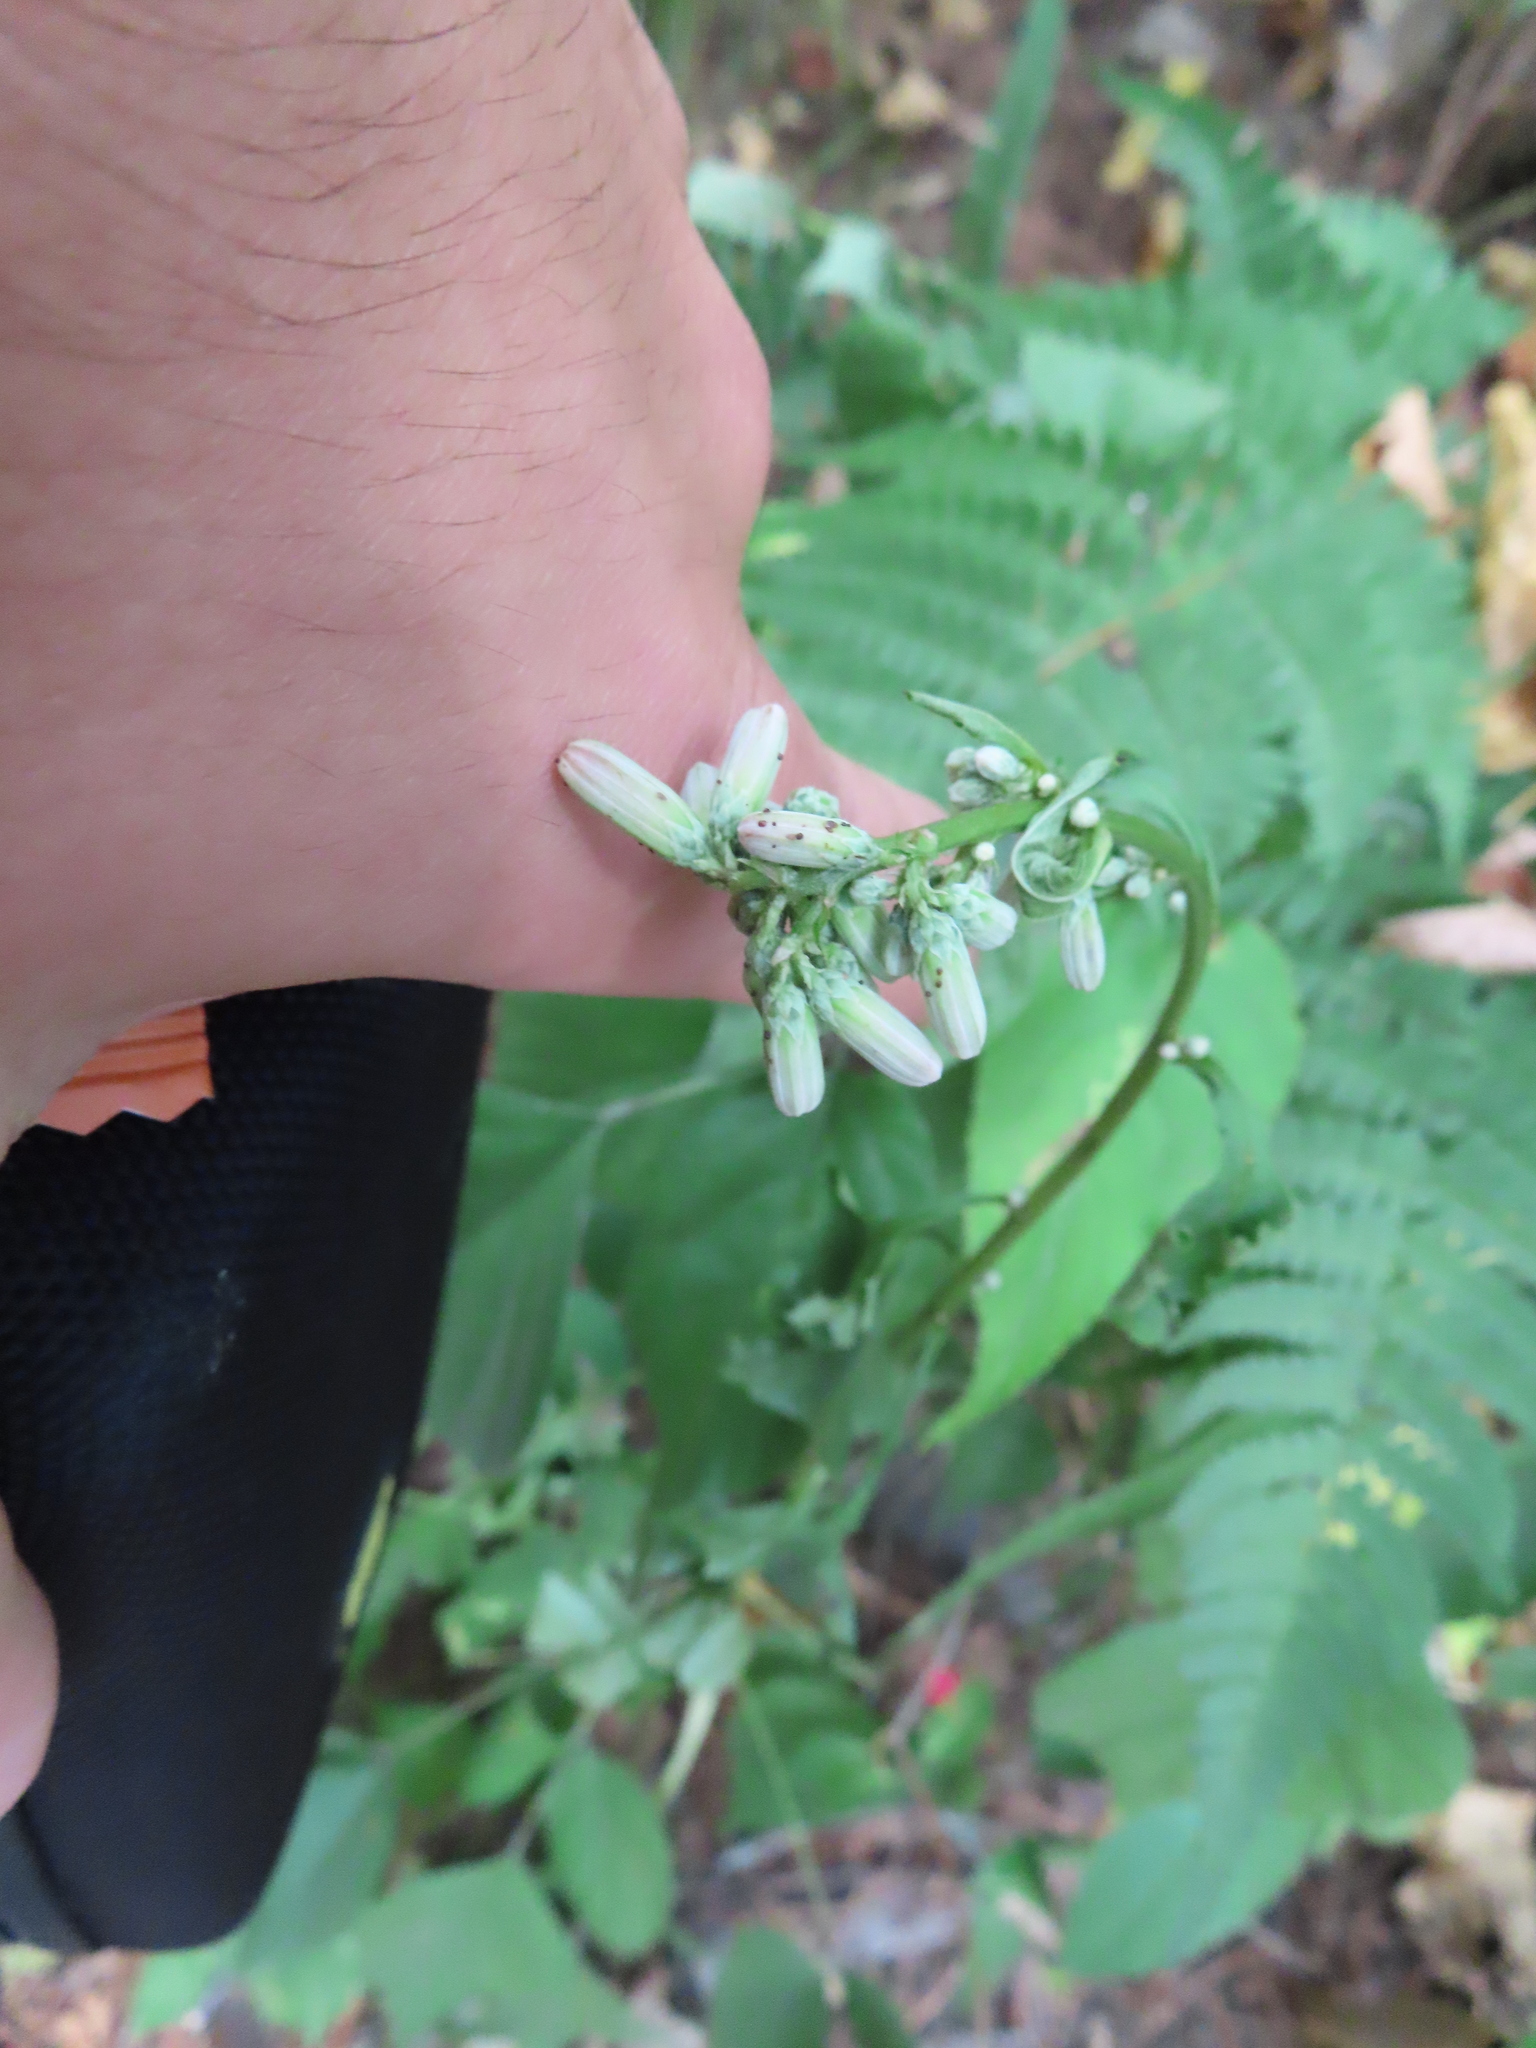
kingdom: Plantae
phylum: Tracheophyta
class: Magnoliopsida
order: Asterales
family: Asteraceae
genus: Nabalus
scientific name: Nabalus albus
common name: White rattlesnakeroot
